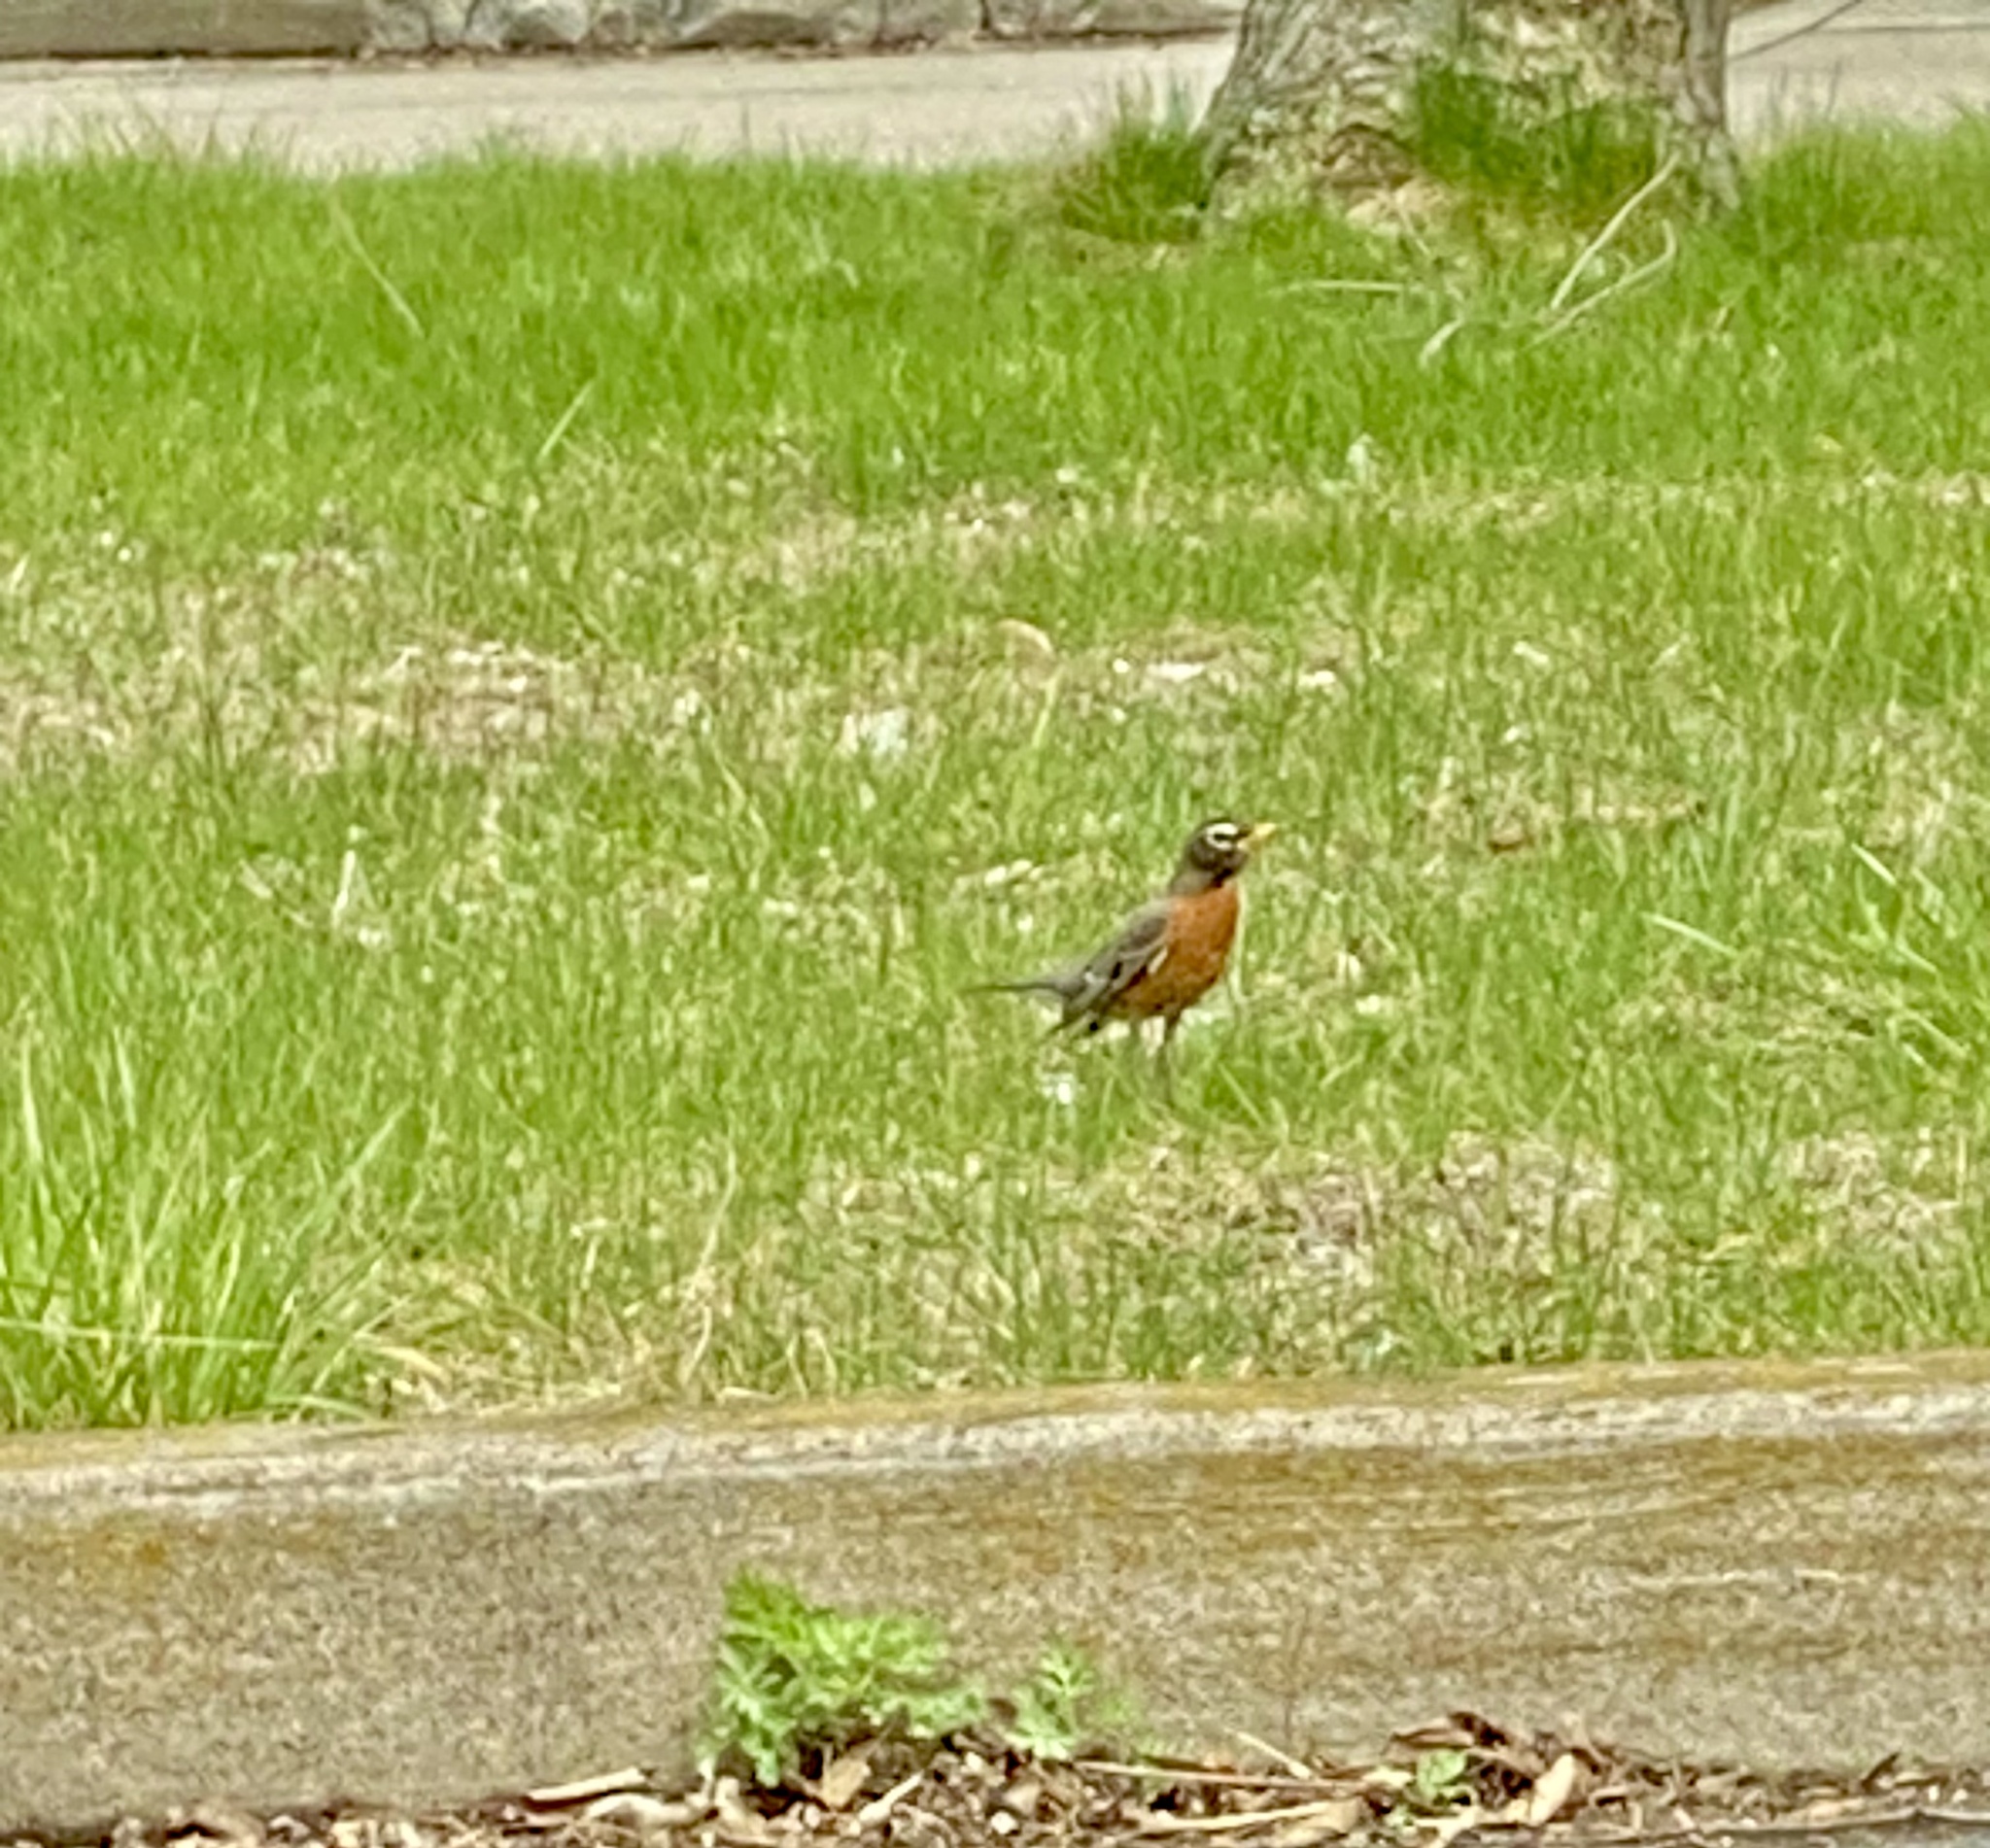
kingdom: Animalia
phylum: Chordata
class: Aves
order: Passeriformes
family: Turdidae
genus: Turdus
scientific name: Turdus migratorius
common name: American robin
